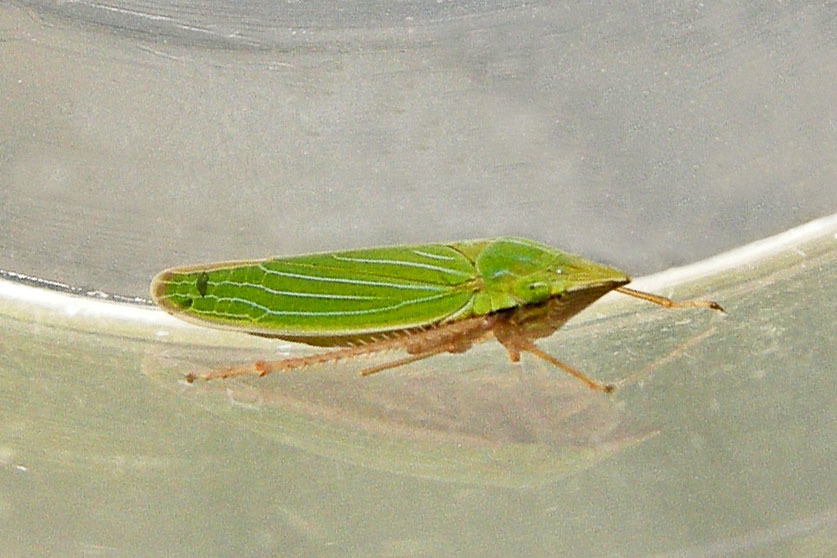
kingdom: Animalia
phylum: Arthropoda
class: Insecta
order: Hemiptera
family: Cicadellidae
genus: Draeculacephala
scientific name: Draeculacephala antica
